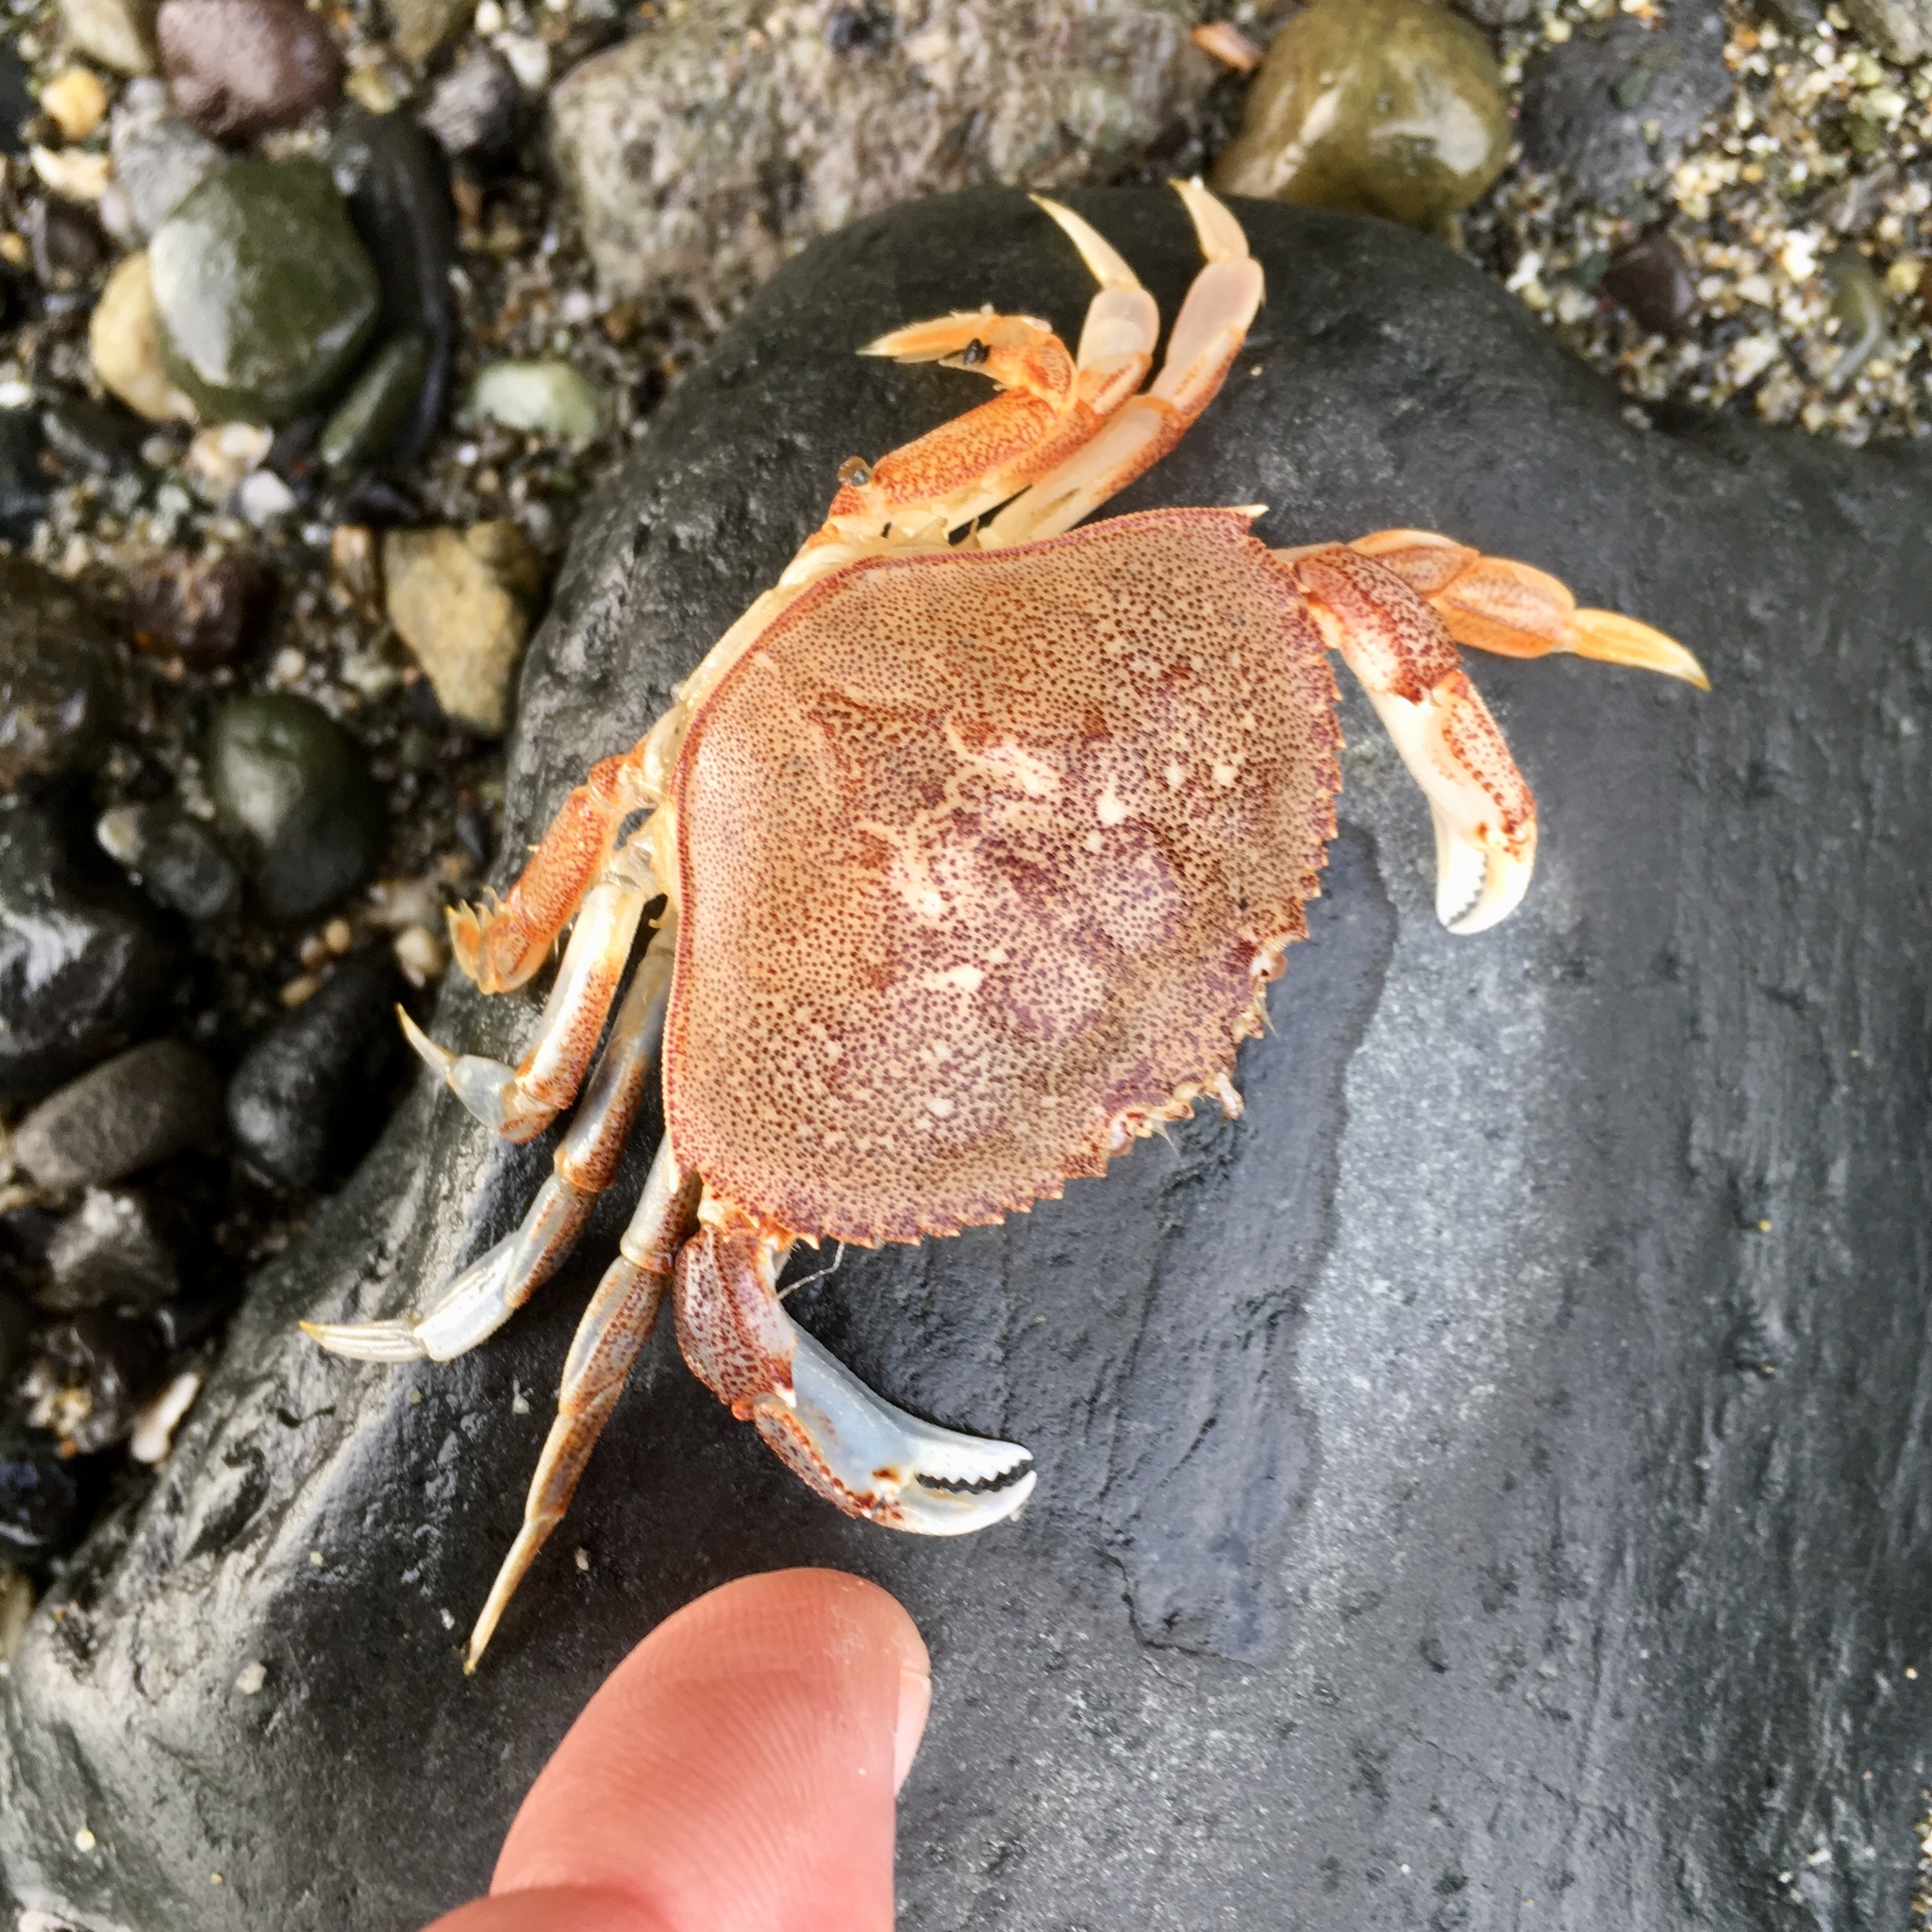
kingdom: Animalia
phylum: Arthropoda
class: Malacostraca
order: Decapoda
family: Cancridae
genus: Metacarcinus
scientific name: Metacarcinus magister
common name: Californian crab
